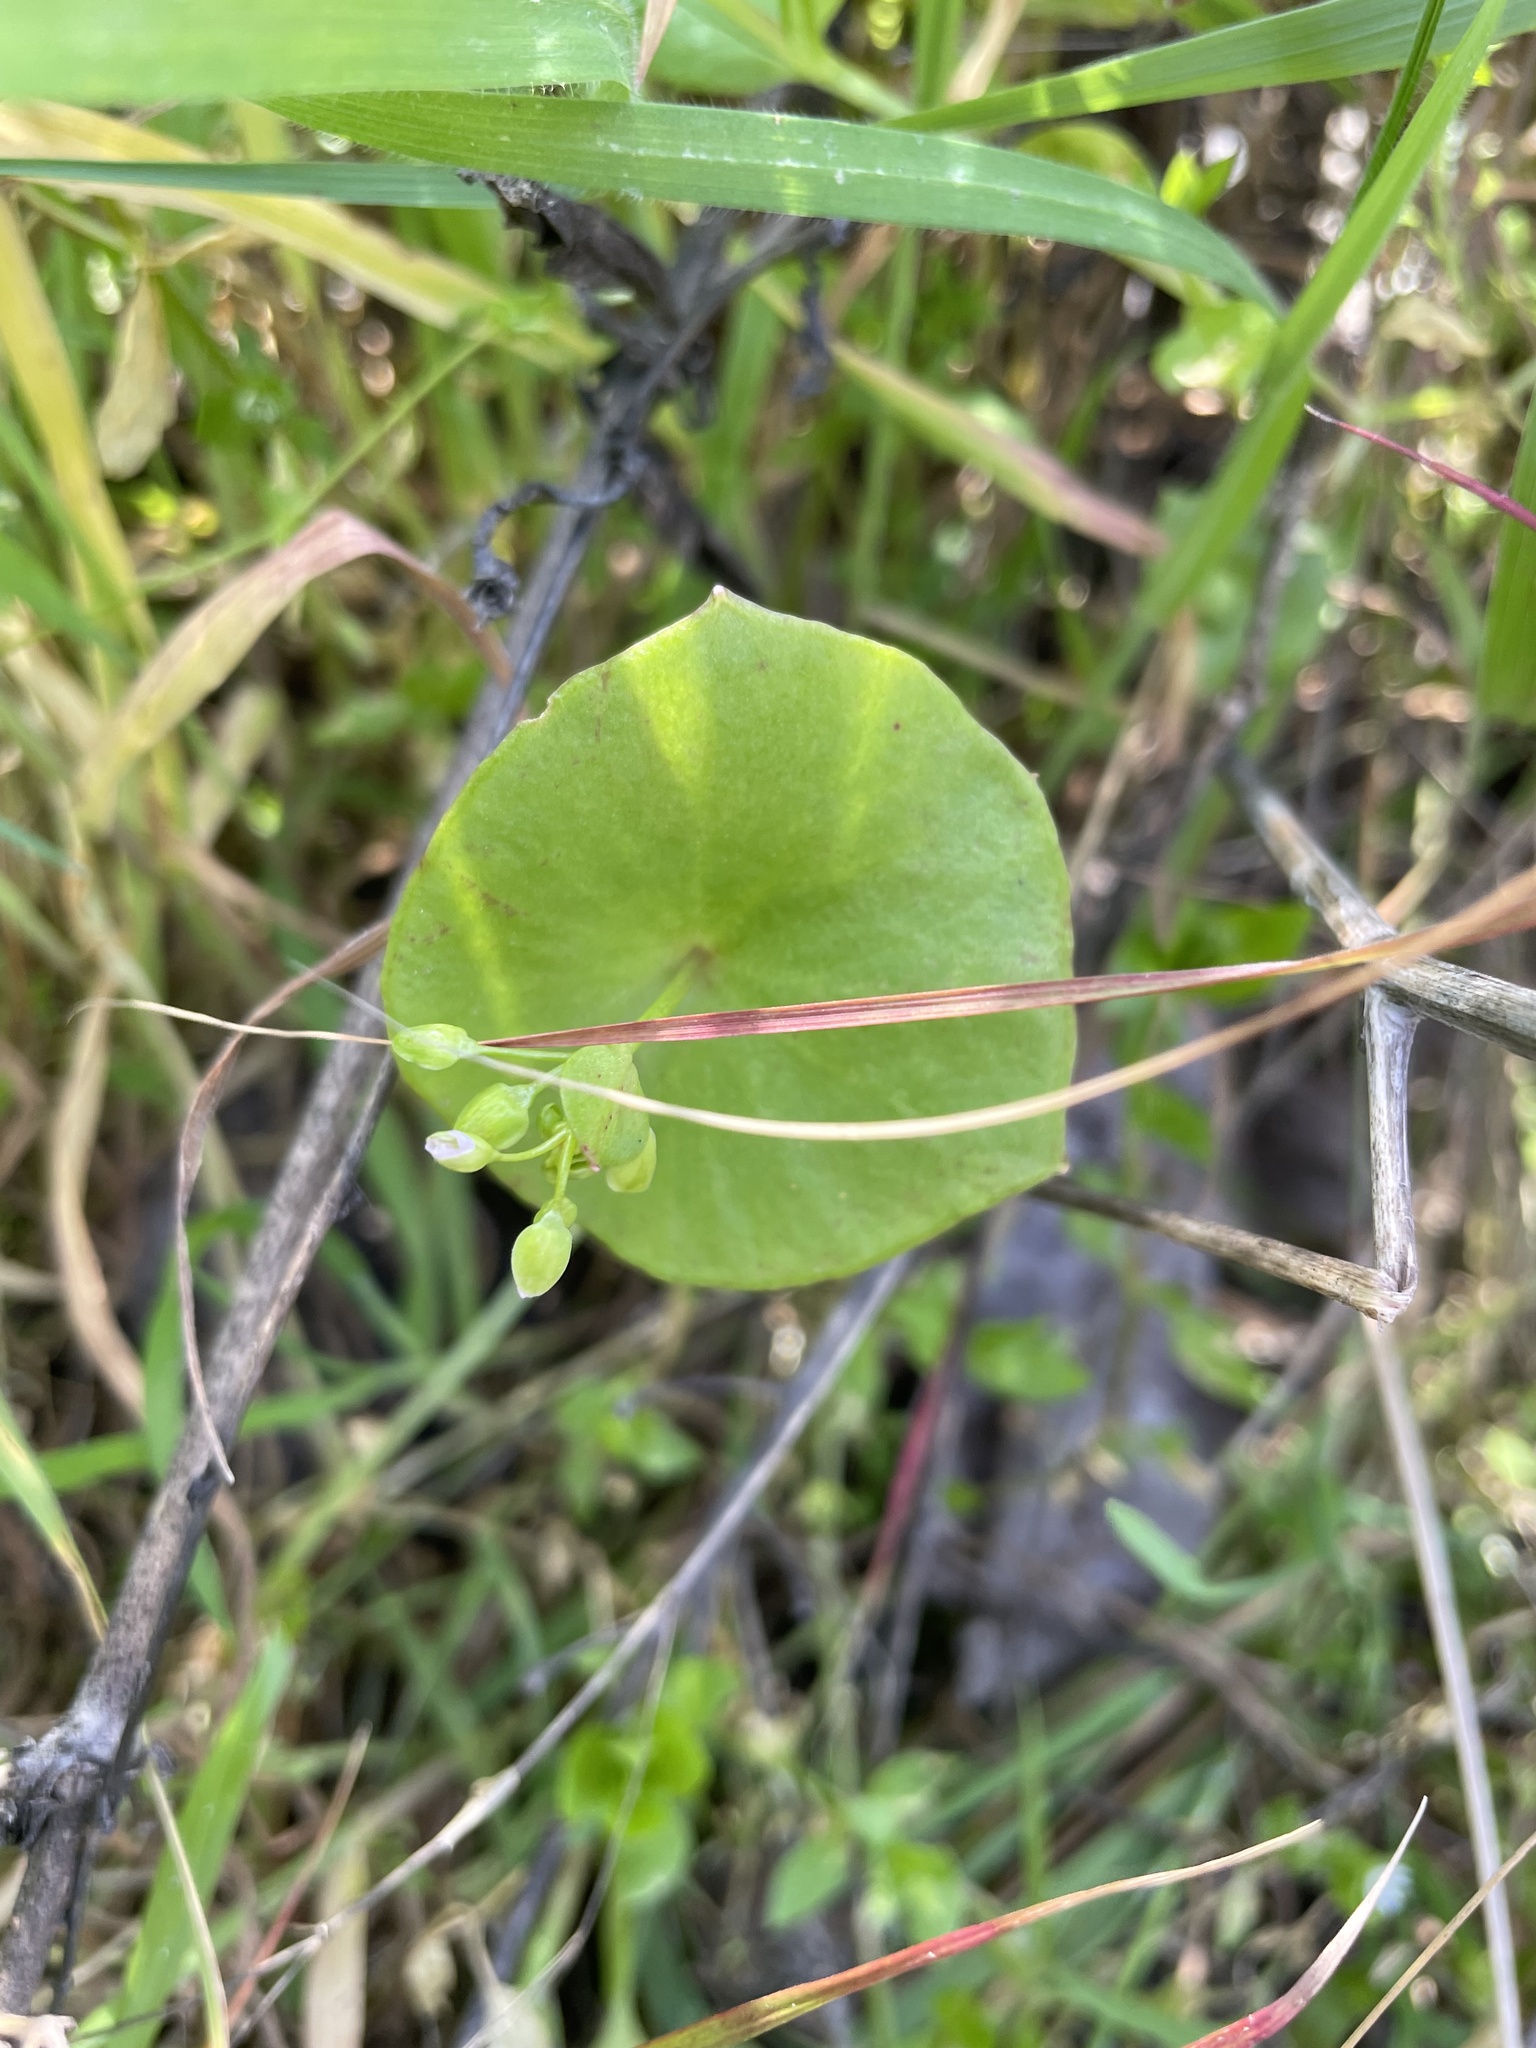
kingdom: Plantae
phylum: Tracheophyta
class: Magnoliopsida
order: Caryophyllales
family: Montiaceae
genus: Claytonia
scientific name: Claytonia perfoliata
